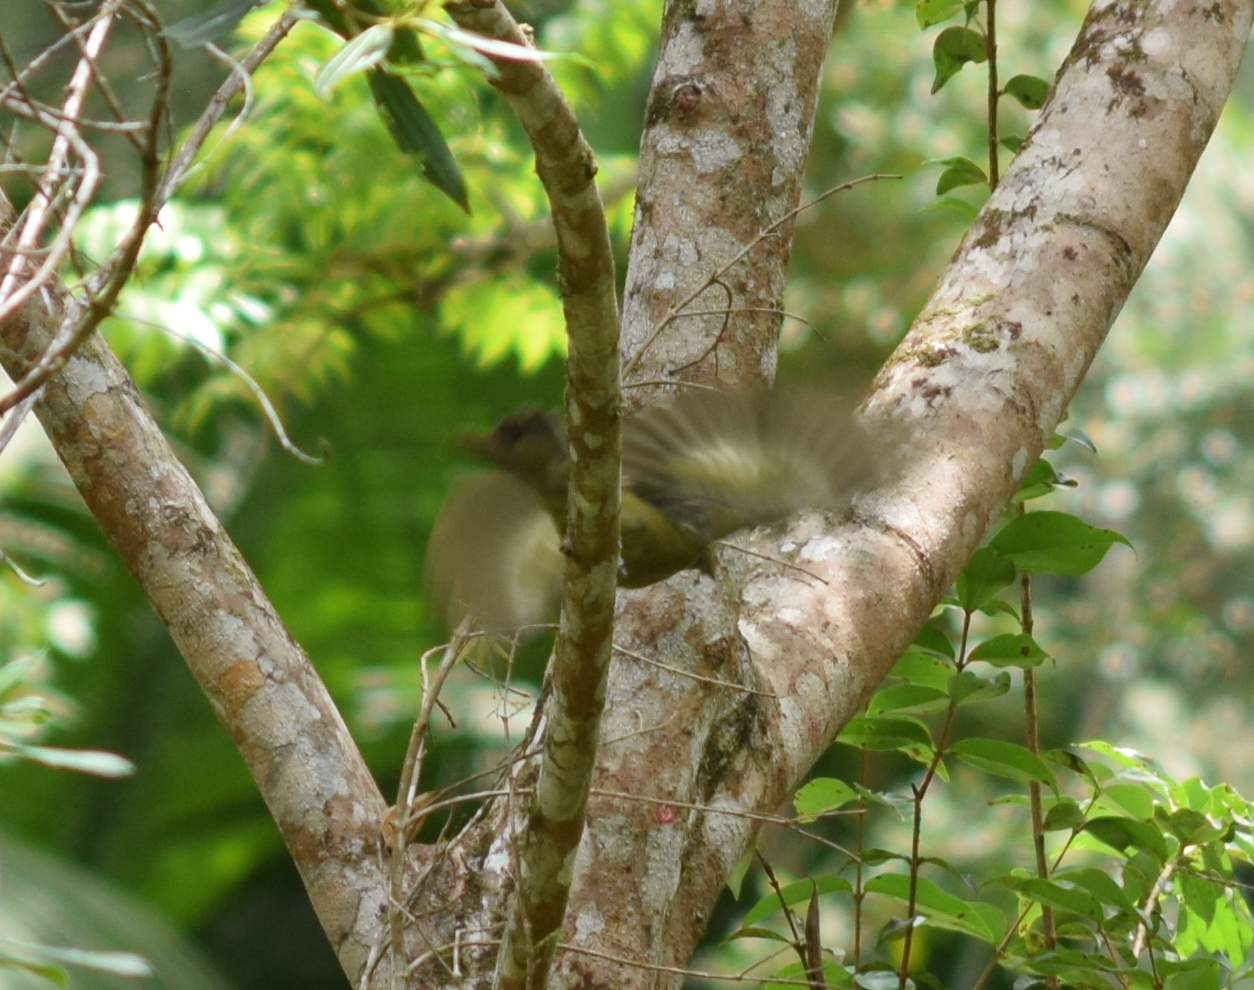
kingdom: Animalia
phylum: Chordata
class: Aves
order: Passeriformes
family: Thraupidae
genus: Thraupis
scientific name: Thraupis palmarum
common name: Palm tanager
